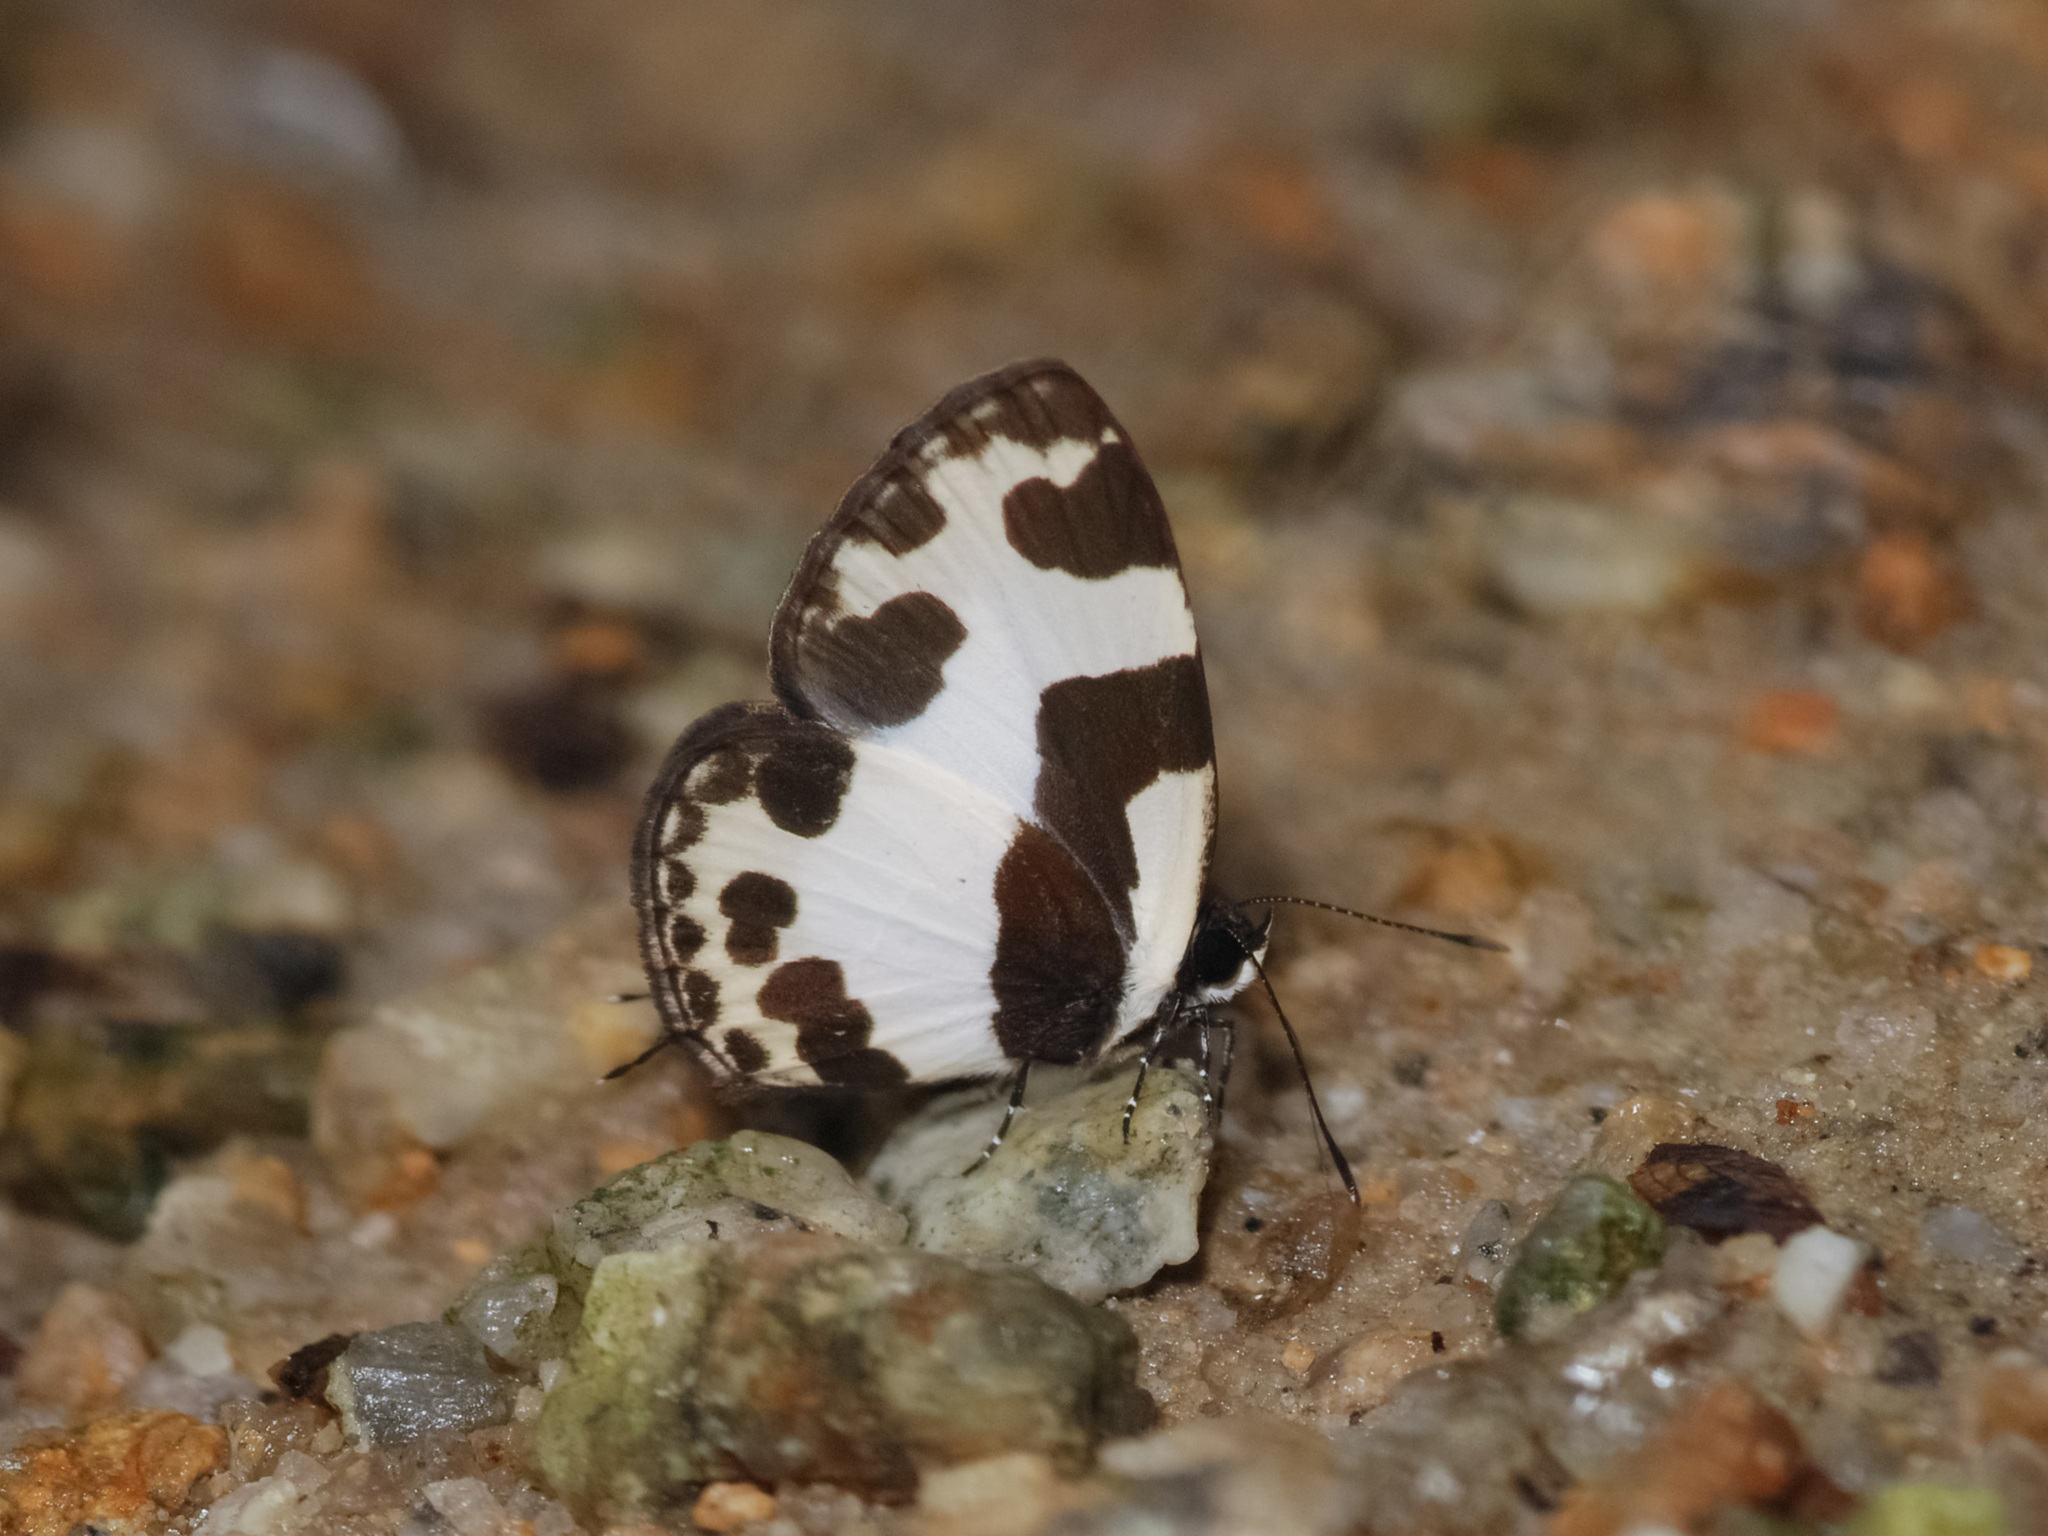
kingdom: Animalia
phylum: Arthropoda
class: Insecta
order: Lepidoptera
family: Lycaenidae
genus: Caleta
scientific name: Caleta elna
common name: Elbowed pierrot
